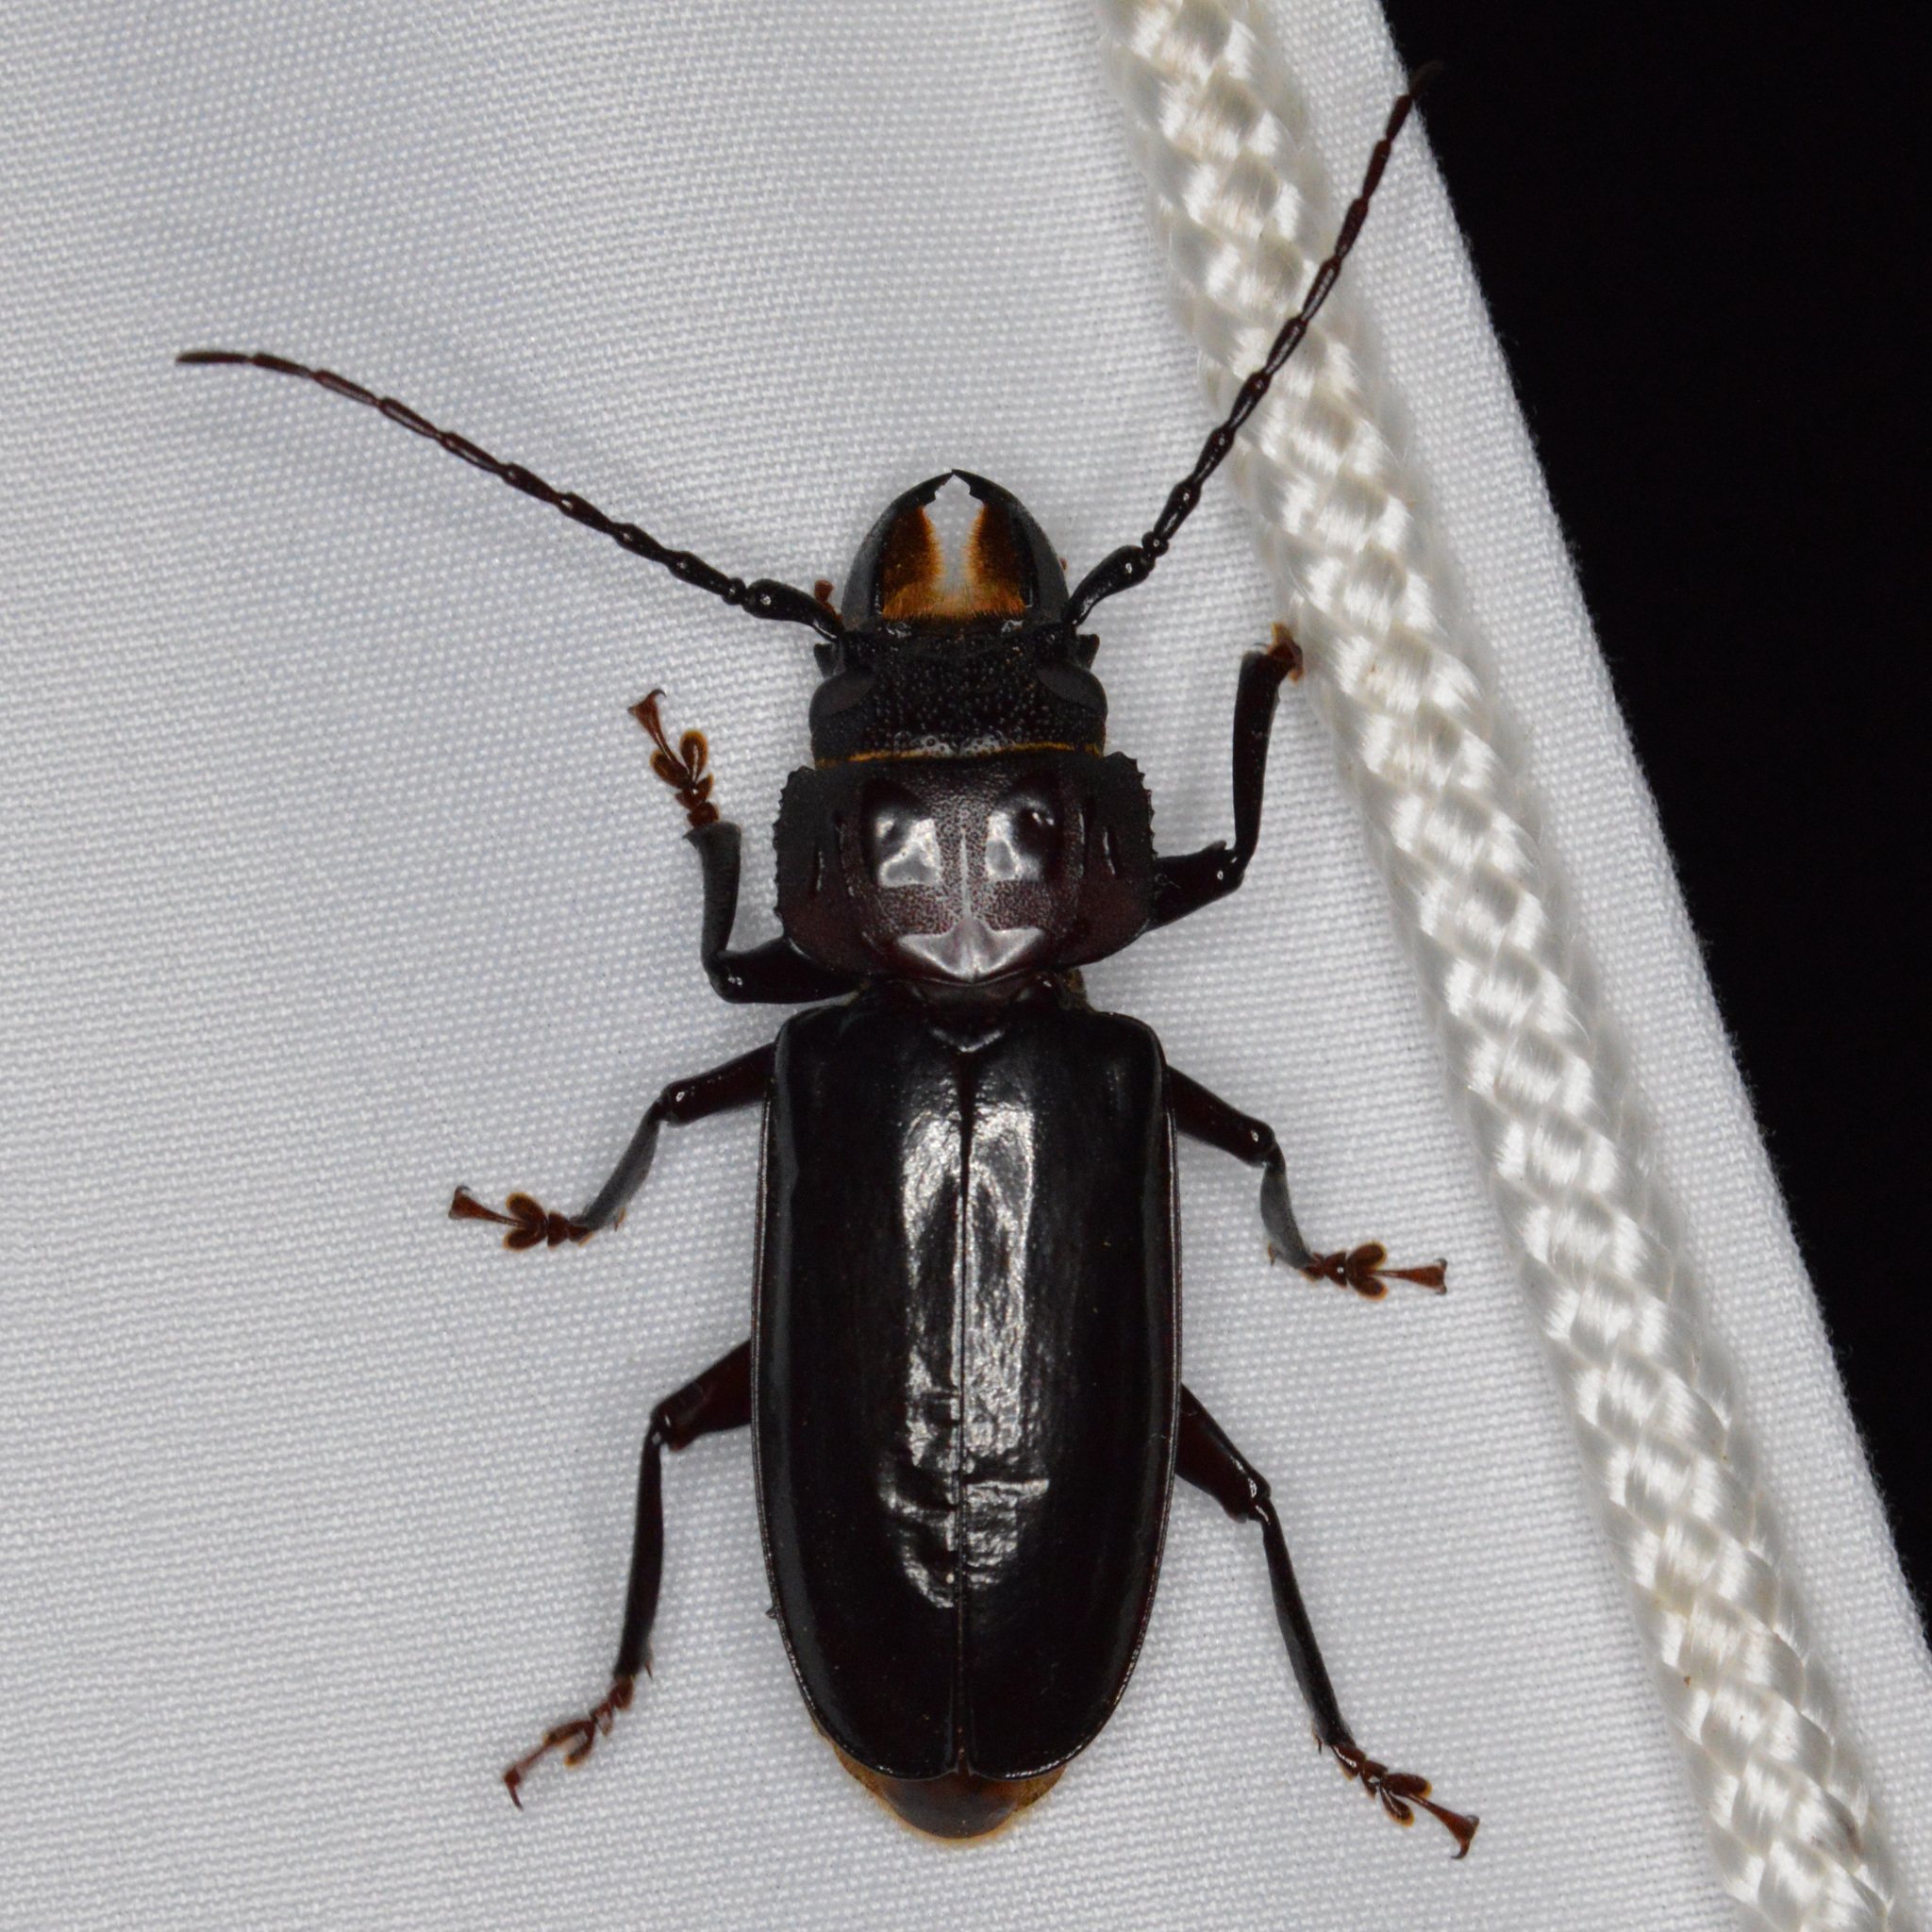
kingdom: Animalia
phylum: Arthropoda
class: Insecta
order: Coleoptera
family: Cerambycidae
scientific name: Cerambycidae
